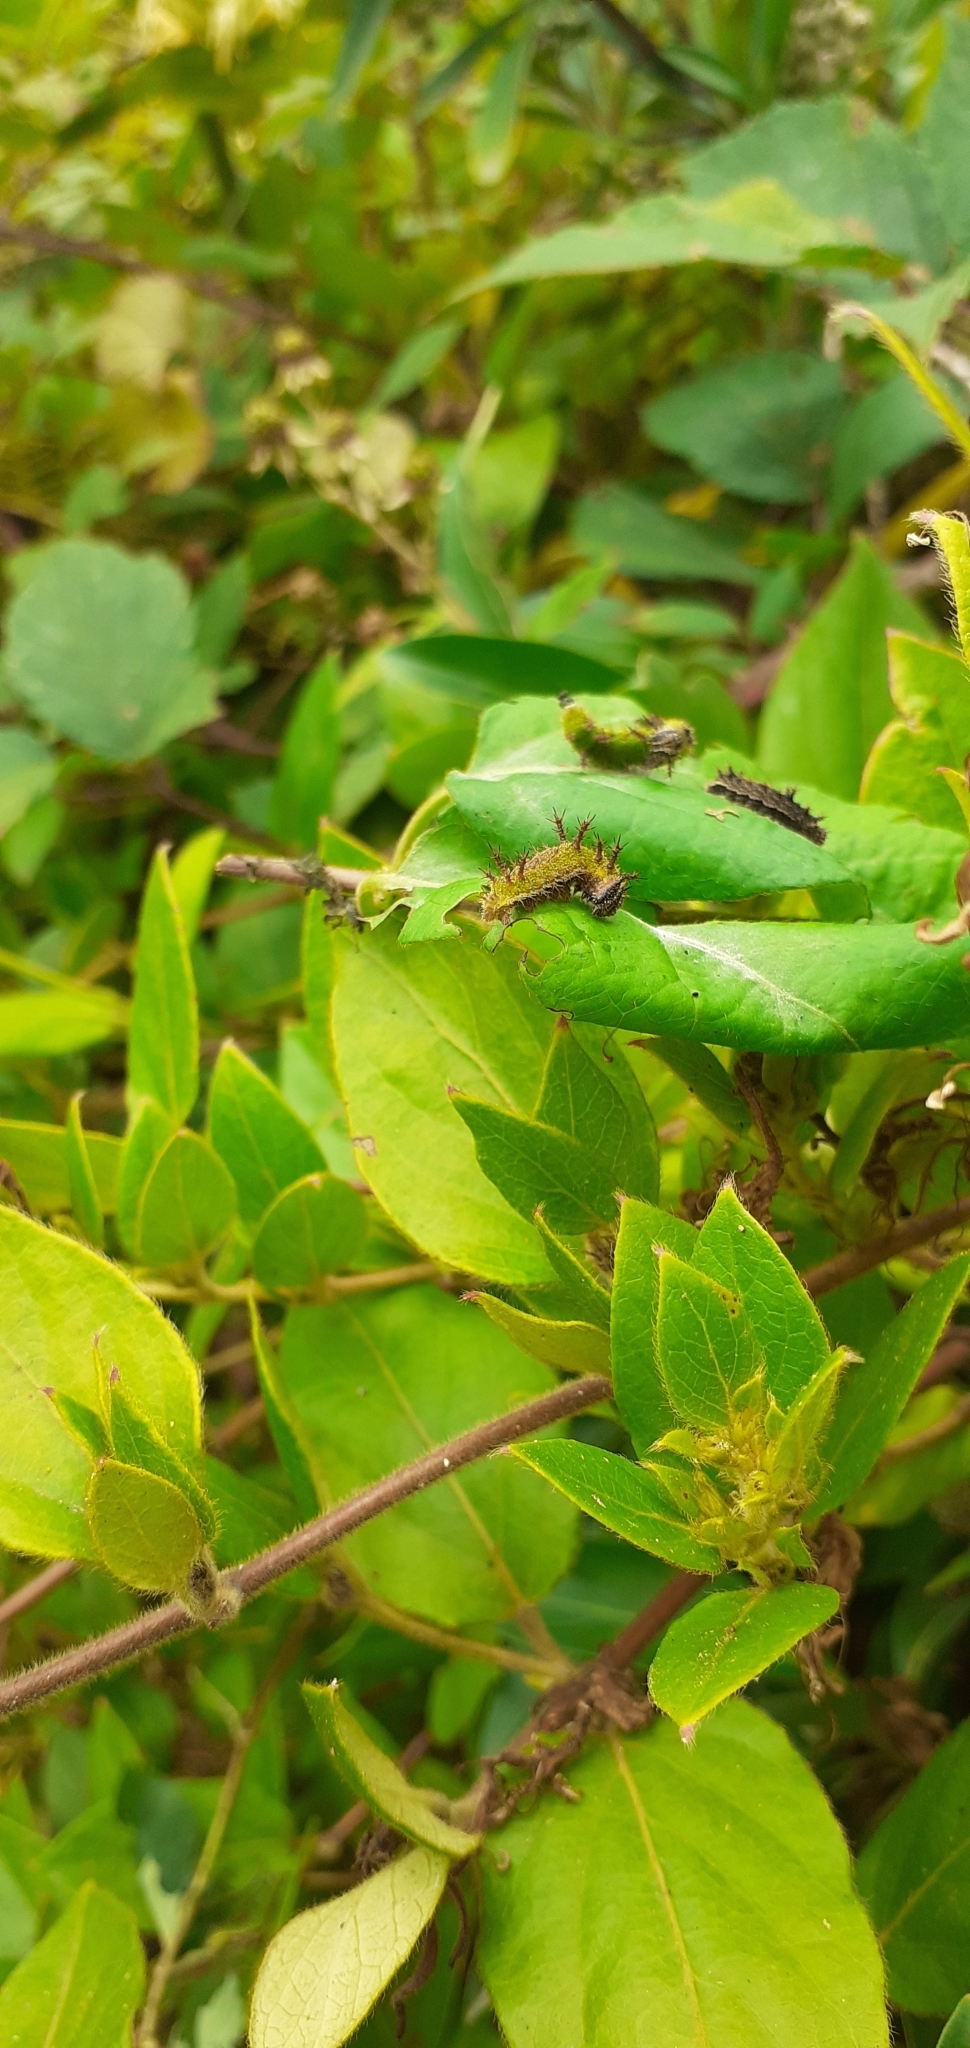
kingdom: Animalia
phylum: Arthropoda
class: Insecta
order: Lepidoptera
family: Nymphalidae
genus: Ladoga
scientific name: Ladoga camilla
